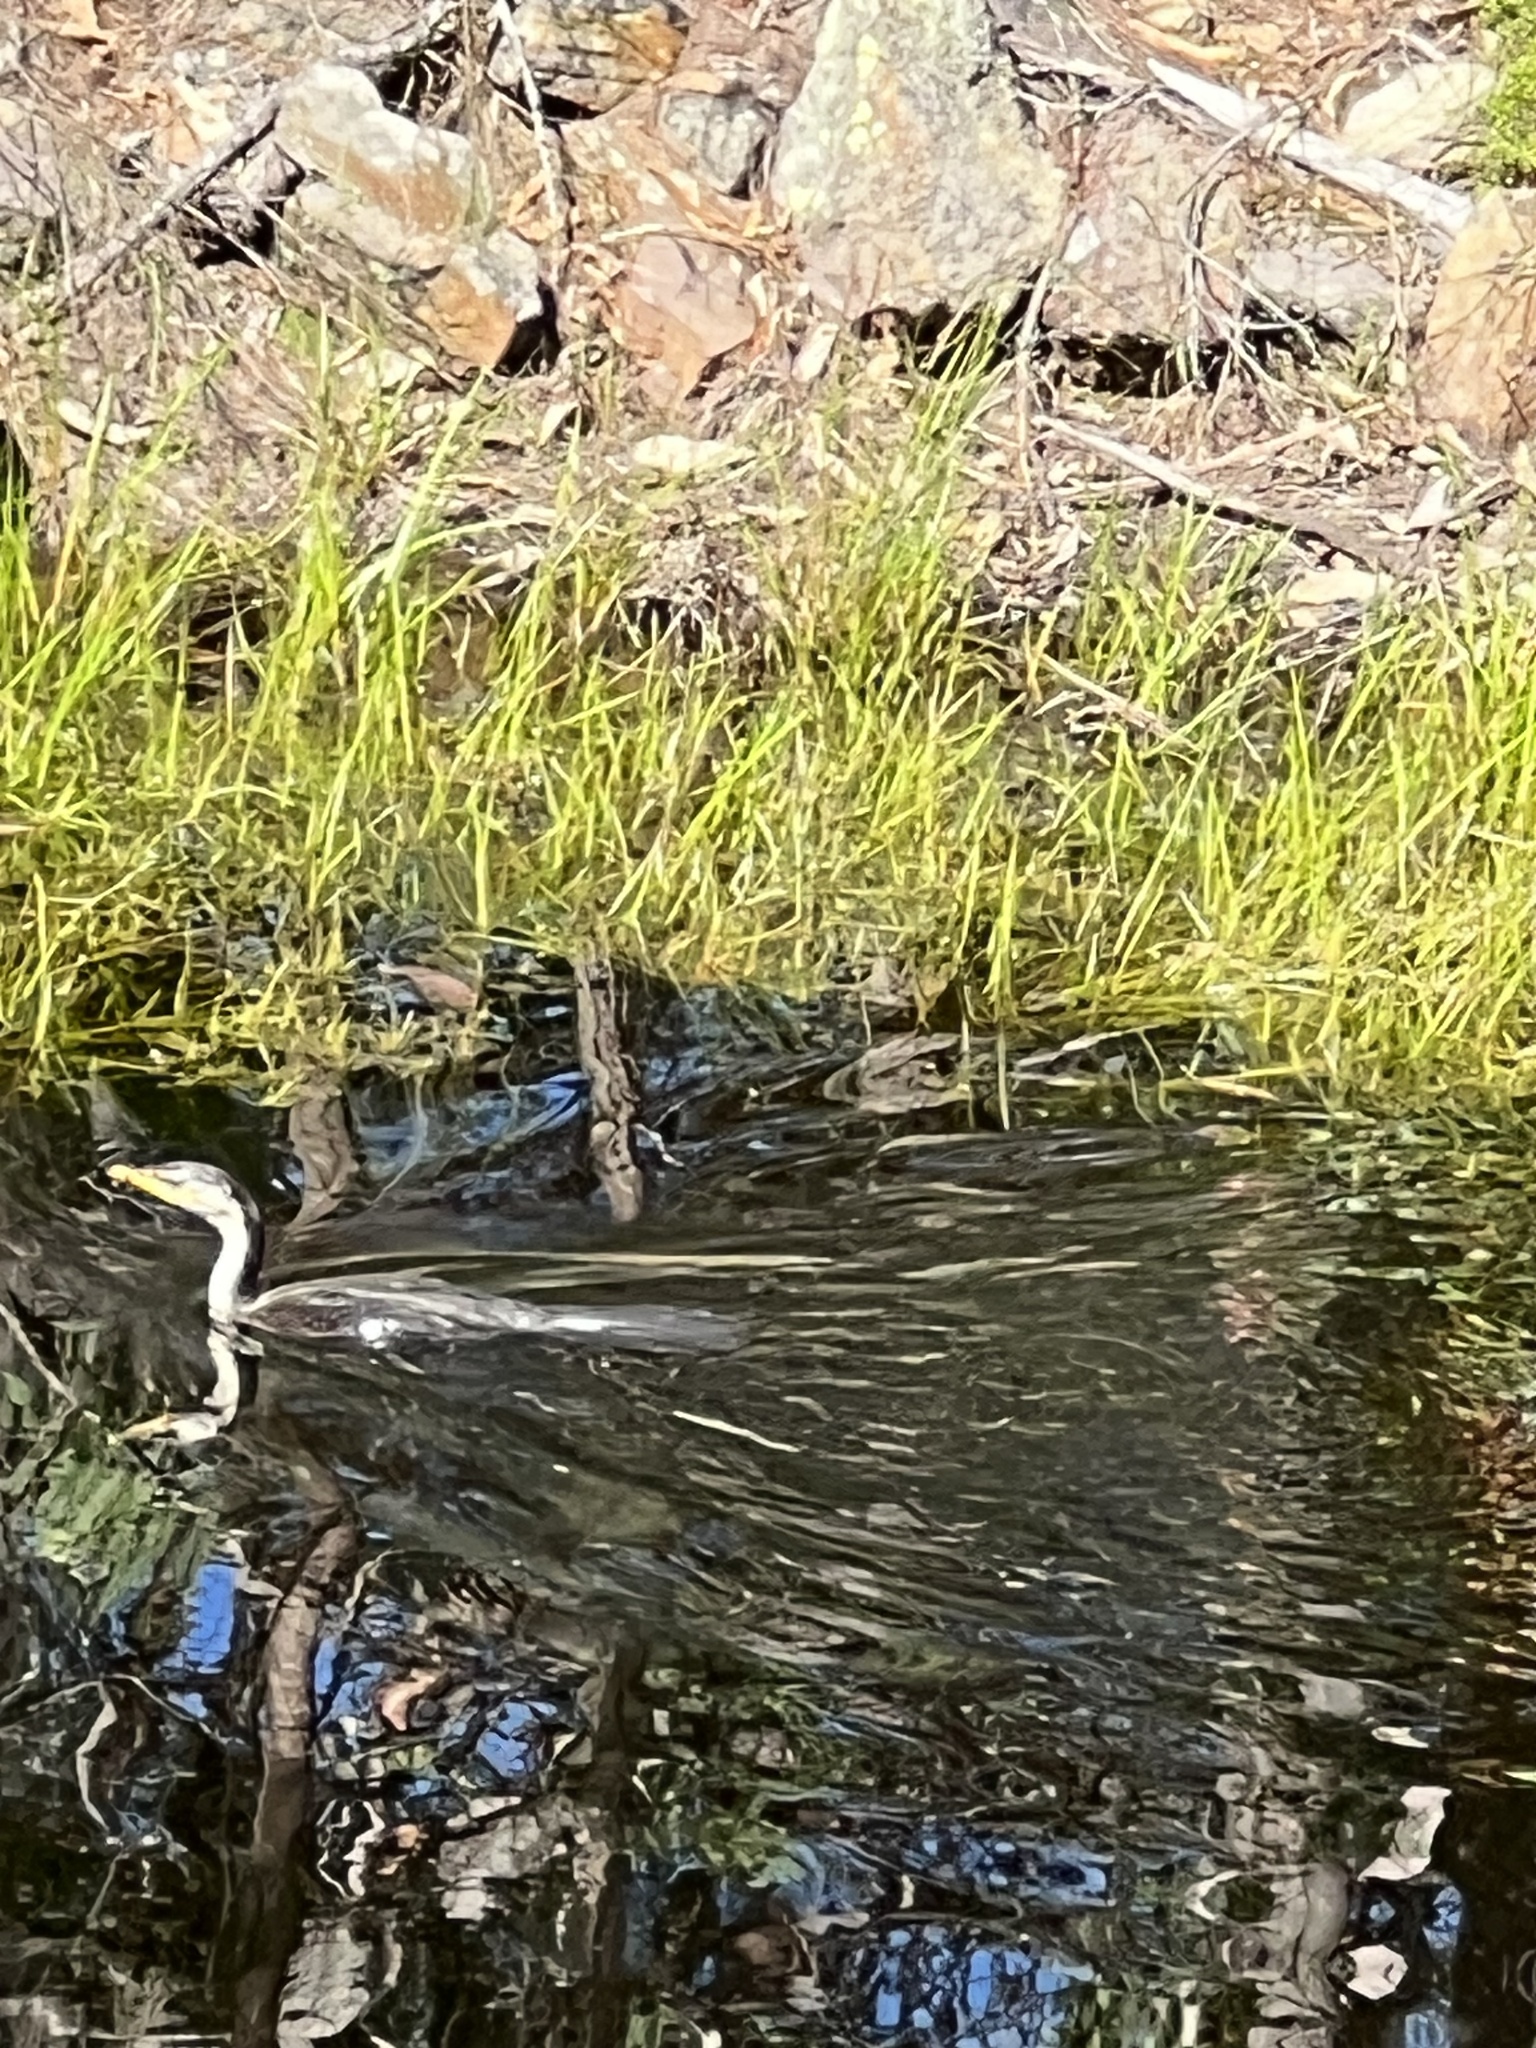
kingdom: Animalia
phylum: Chordata
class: Aves
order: Suliformes
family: Phalacrocoracidae
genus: Microcarbo
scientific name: Microcarbo melanoleucos
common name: Little pied cormorant
